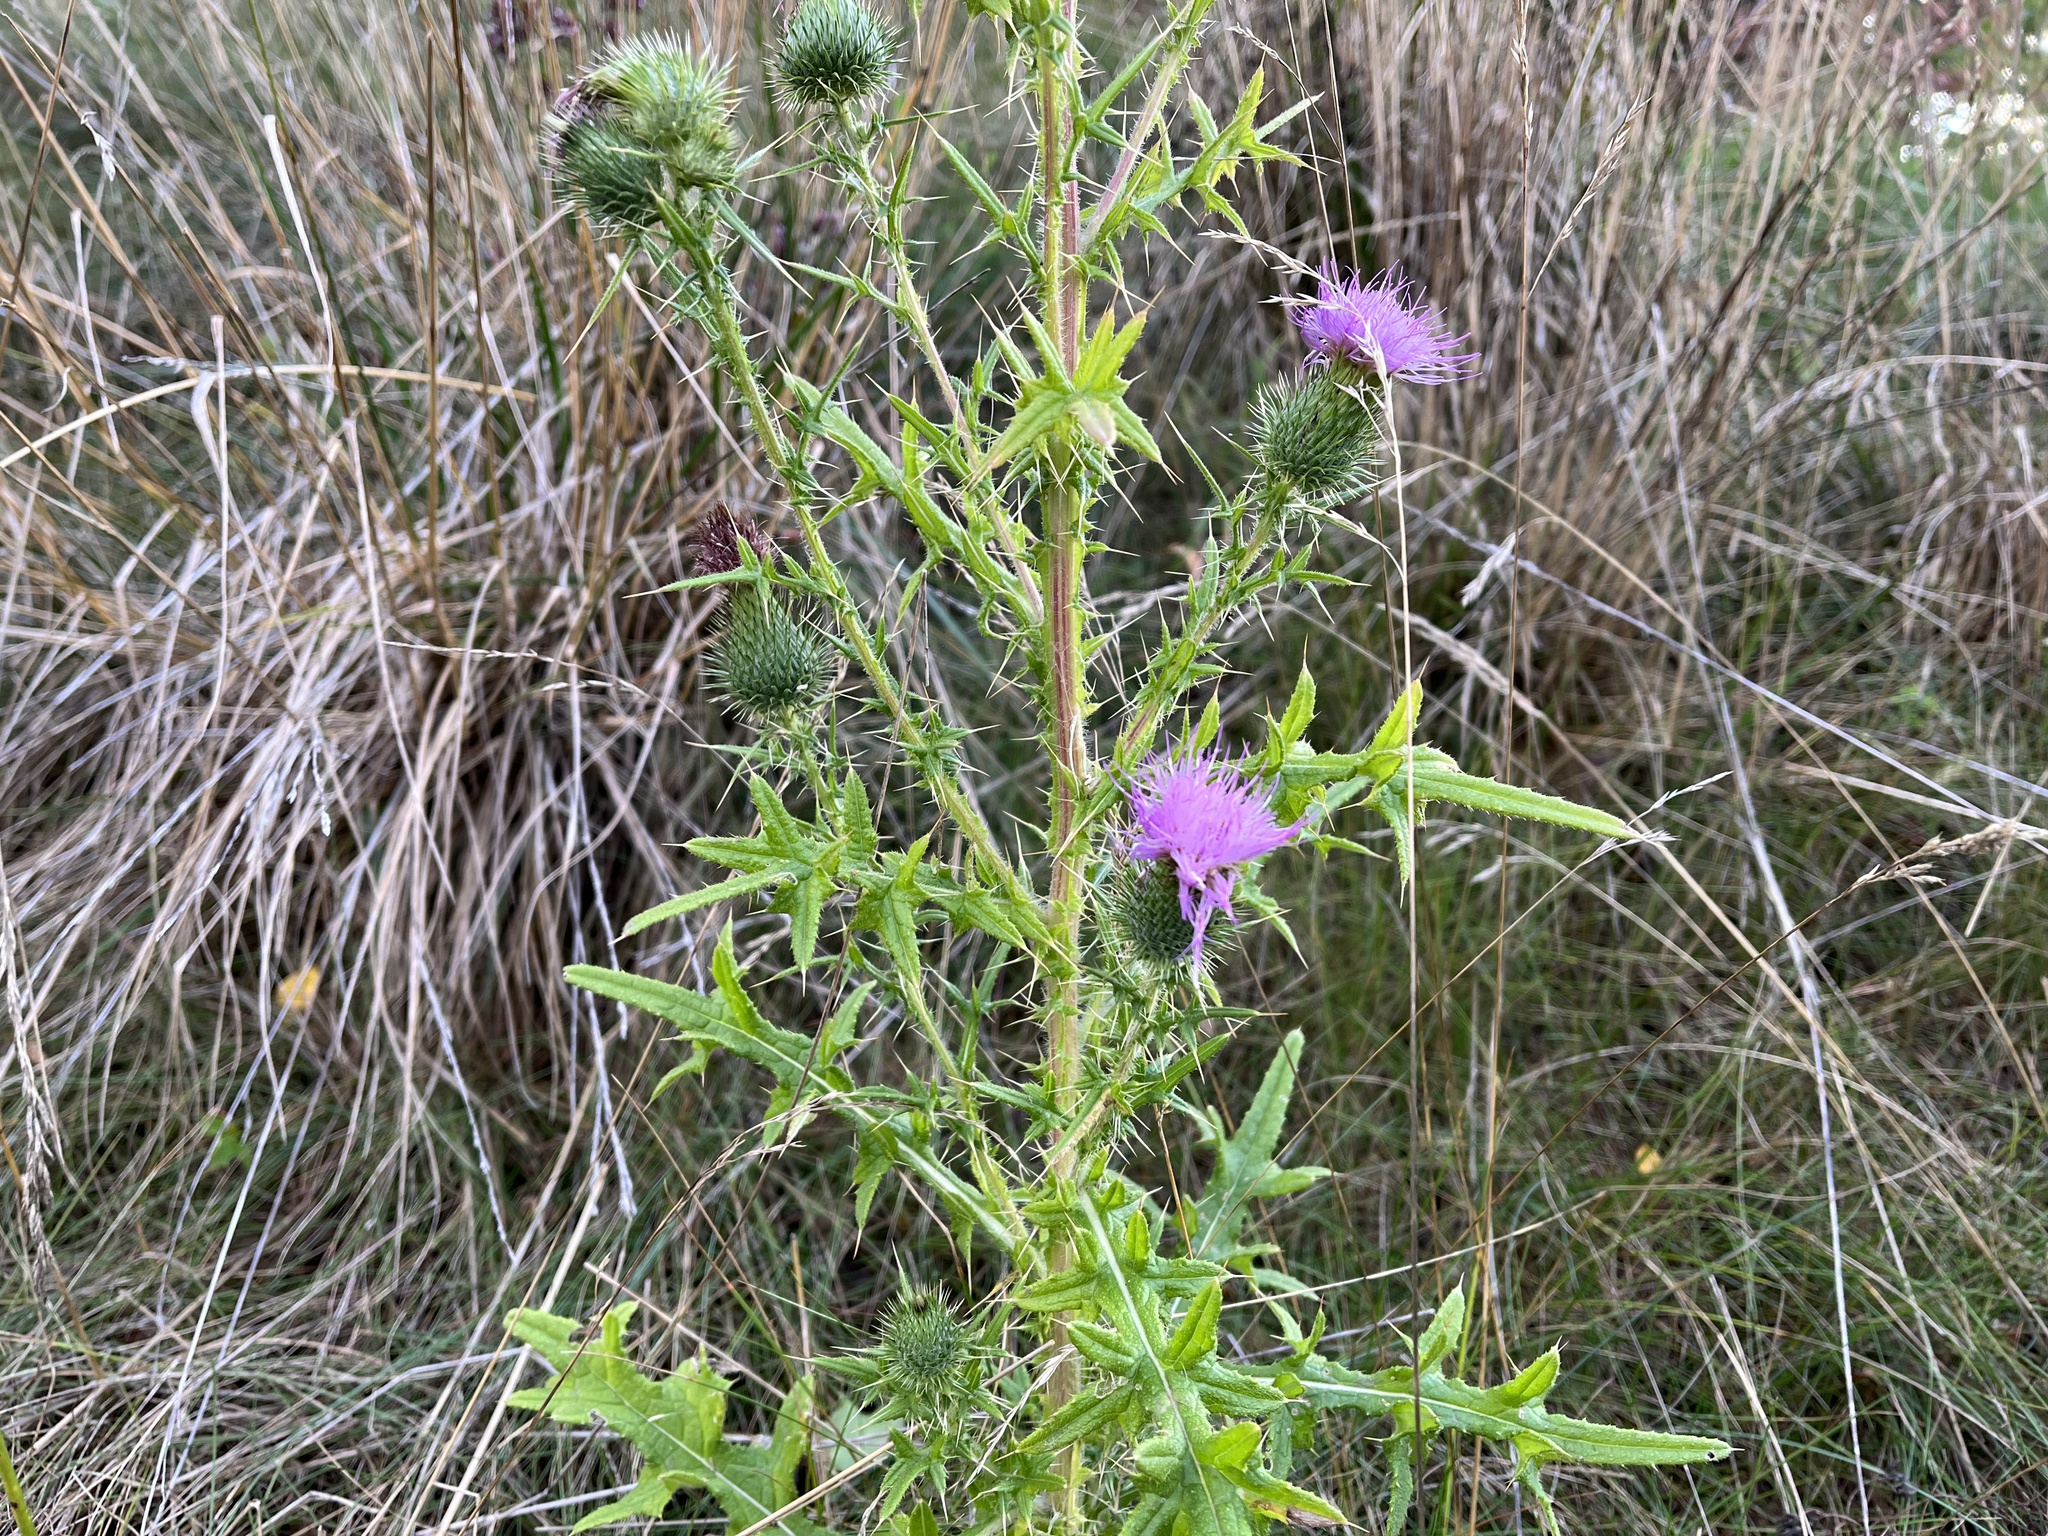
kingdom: Plantae
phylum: Tracheophyta
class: Magnoliopsida
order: Asterales
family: Asteraceae
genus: Cirsium
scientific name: Cirsium vulgare
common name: Bull thistle
